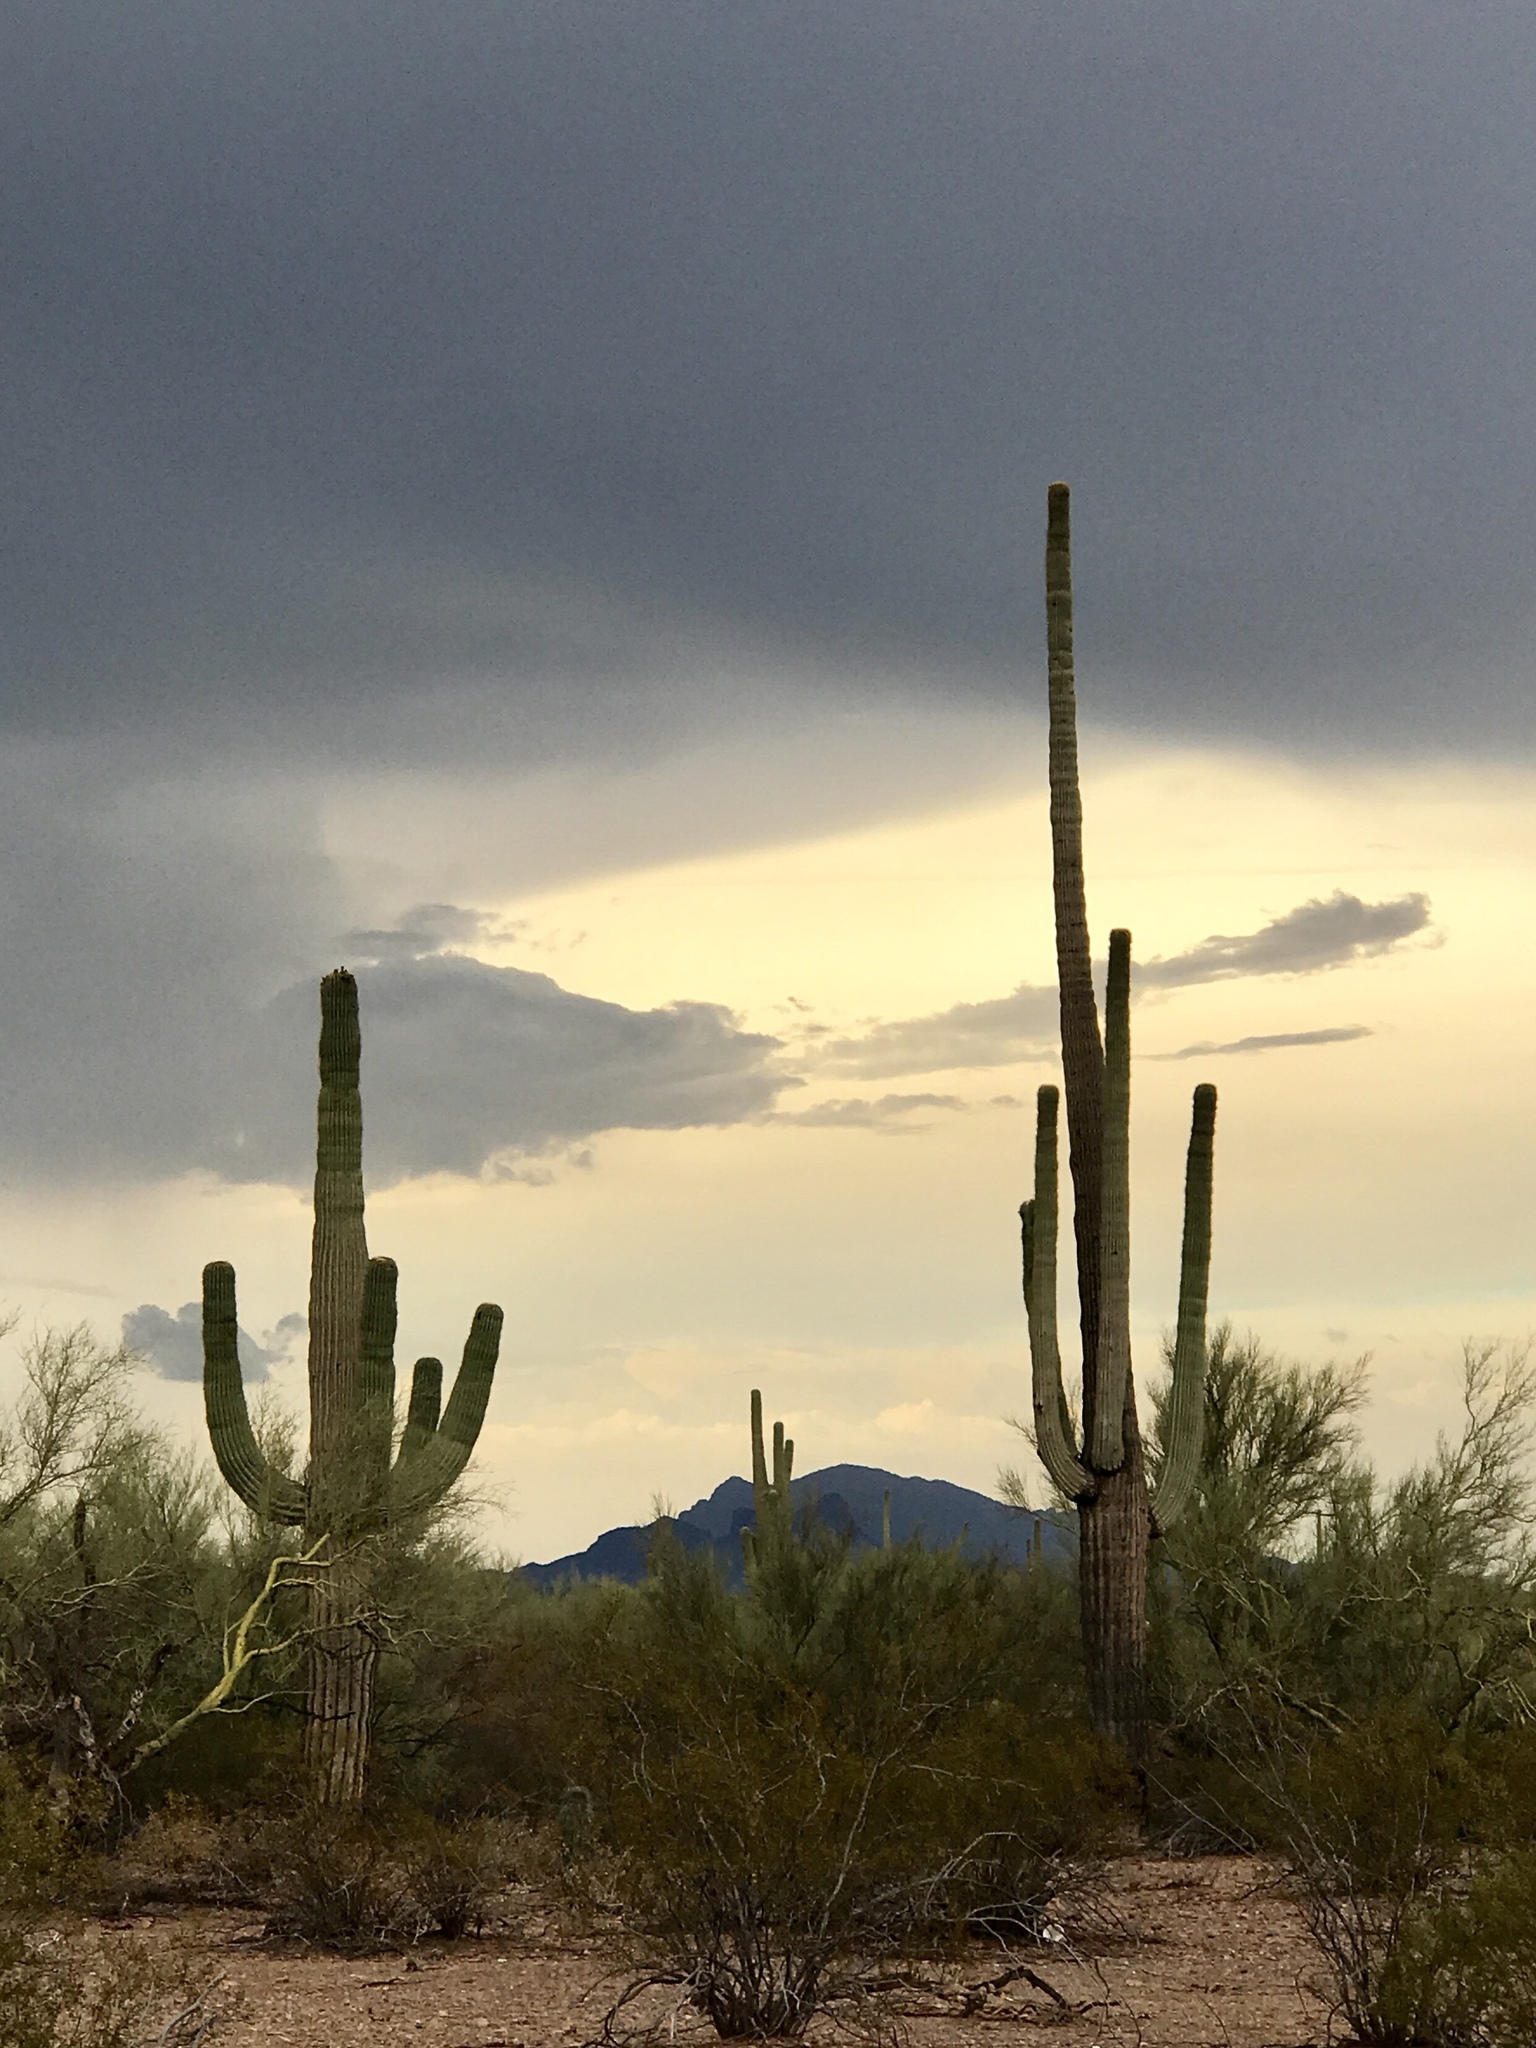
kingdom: Plantae
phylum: Tracheophyta
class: Magnoliopsida
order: Caryophyllales
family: Cactaceae
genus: Carnegiea
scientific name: Carnegiea gigantea
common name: Saguaro
